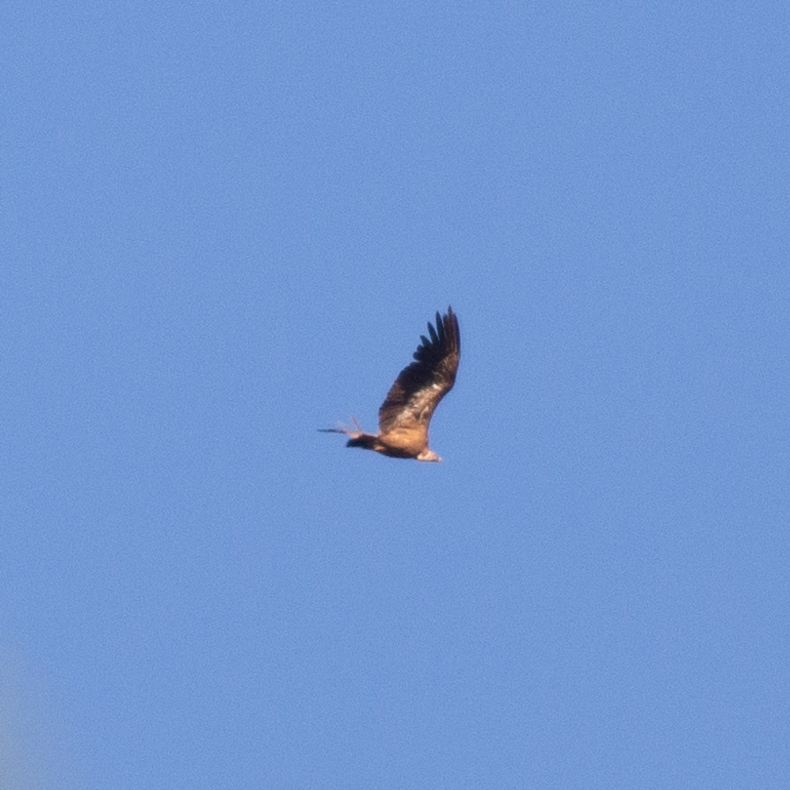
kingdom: Animalia
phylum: Chordata
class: Aves
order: Accipitriformes
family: Accipitridae
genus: Gyps
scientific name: Gyps fulvus
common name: Griffon vulture
